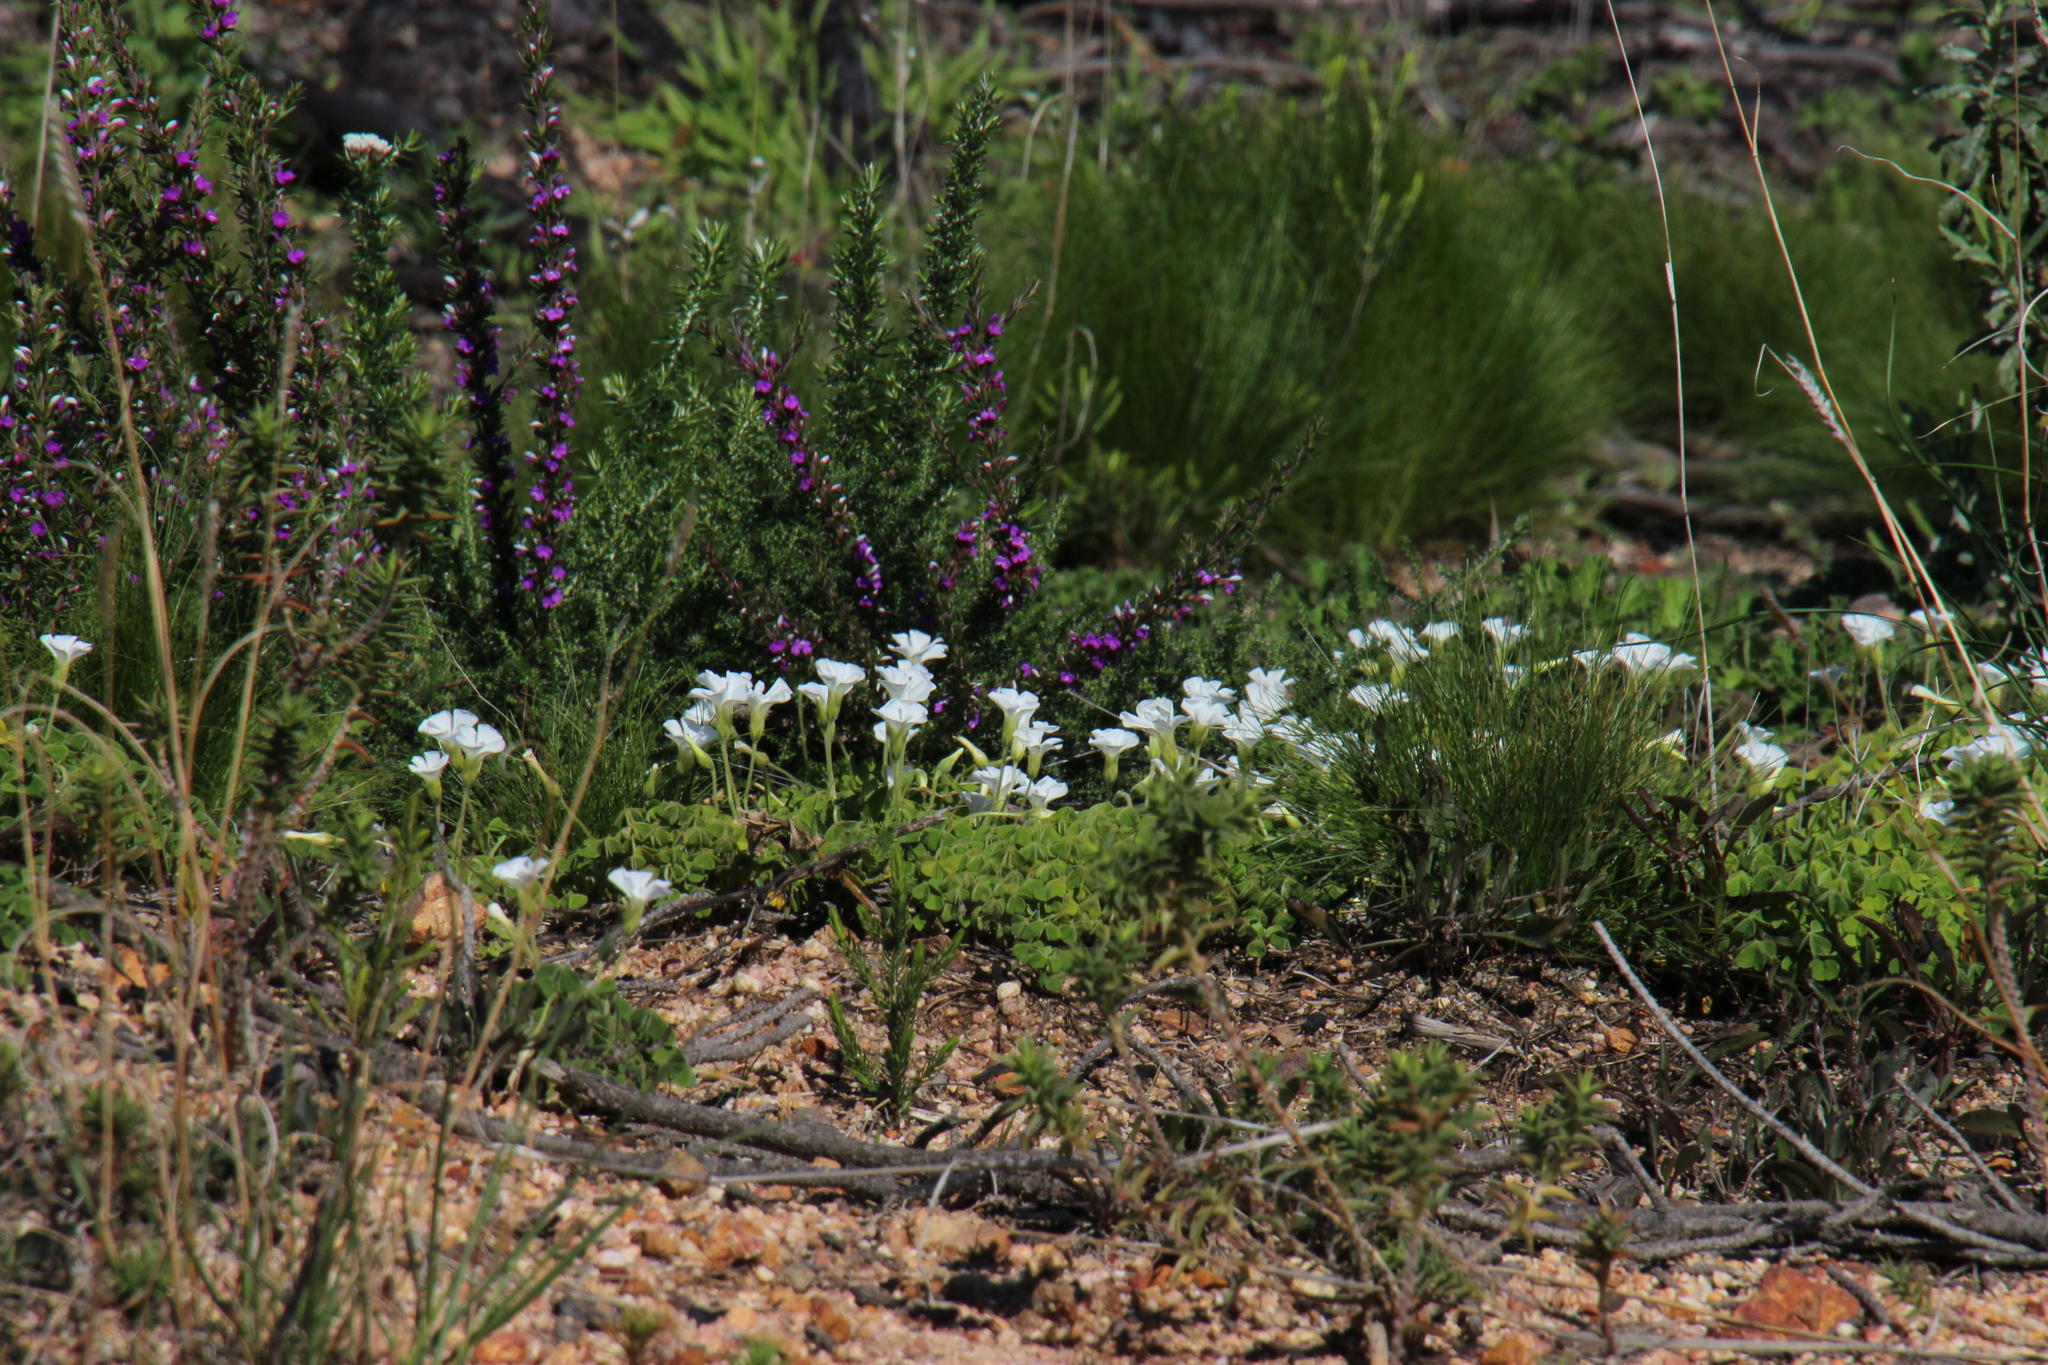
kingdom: Plantae
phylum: Tracheophyta
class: Magnoliopsida
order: Oxalidales
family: Oxalidaceae
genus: Oxalis
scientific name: Oxalis lanata
